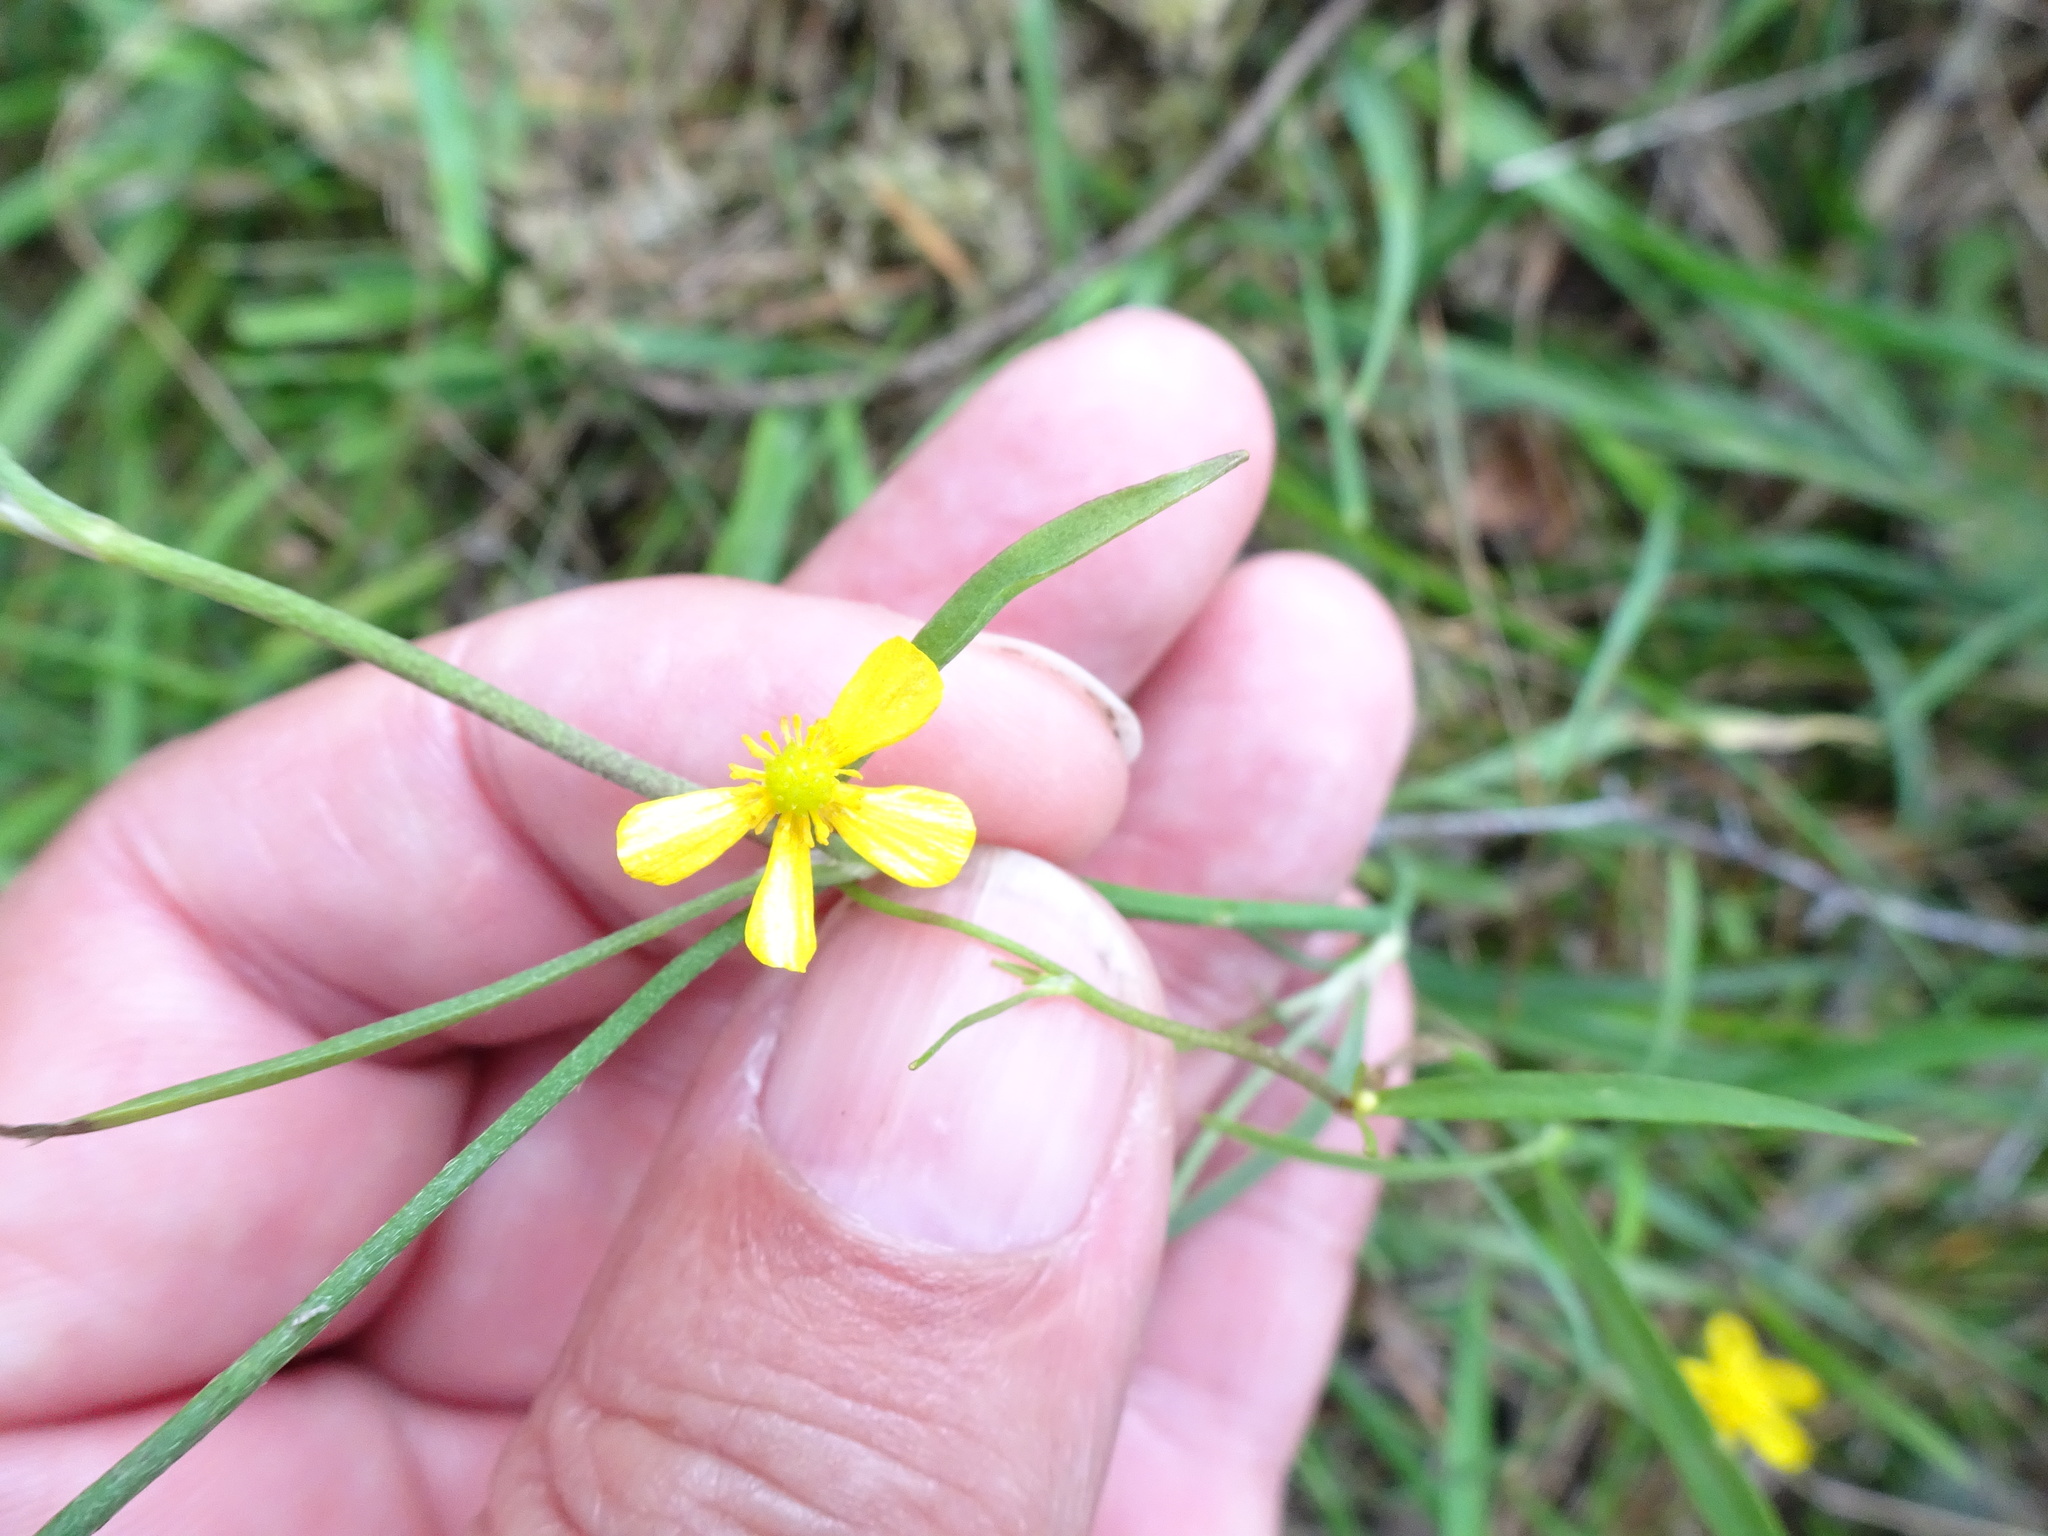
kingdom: Plantae
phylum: Tracheophyta
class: Magnoliopsida
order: Ranunculales
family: Ranunculaceae
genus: Ranunculus
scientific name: Ranunculus flammula
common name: Lesser spearwort
